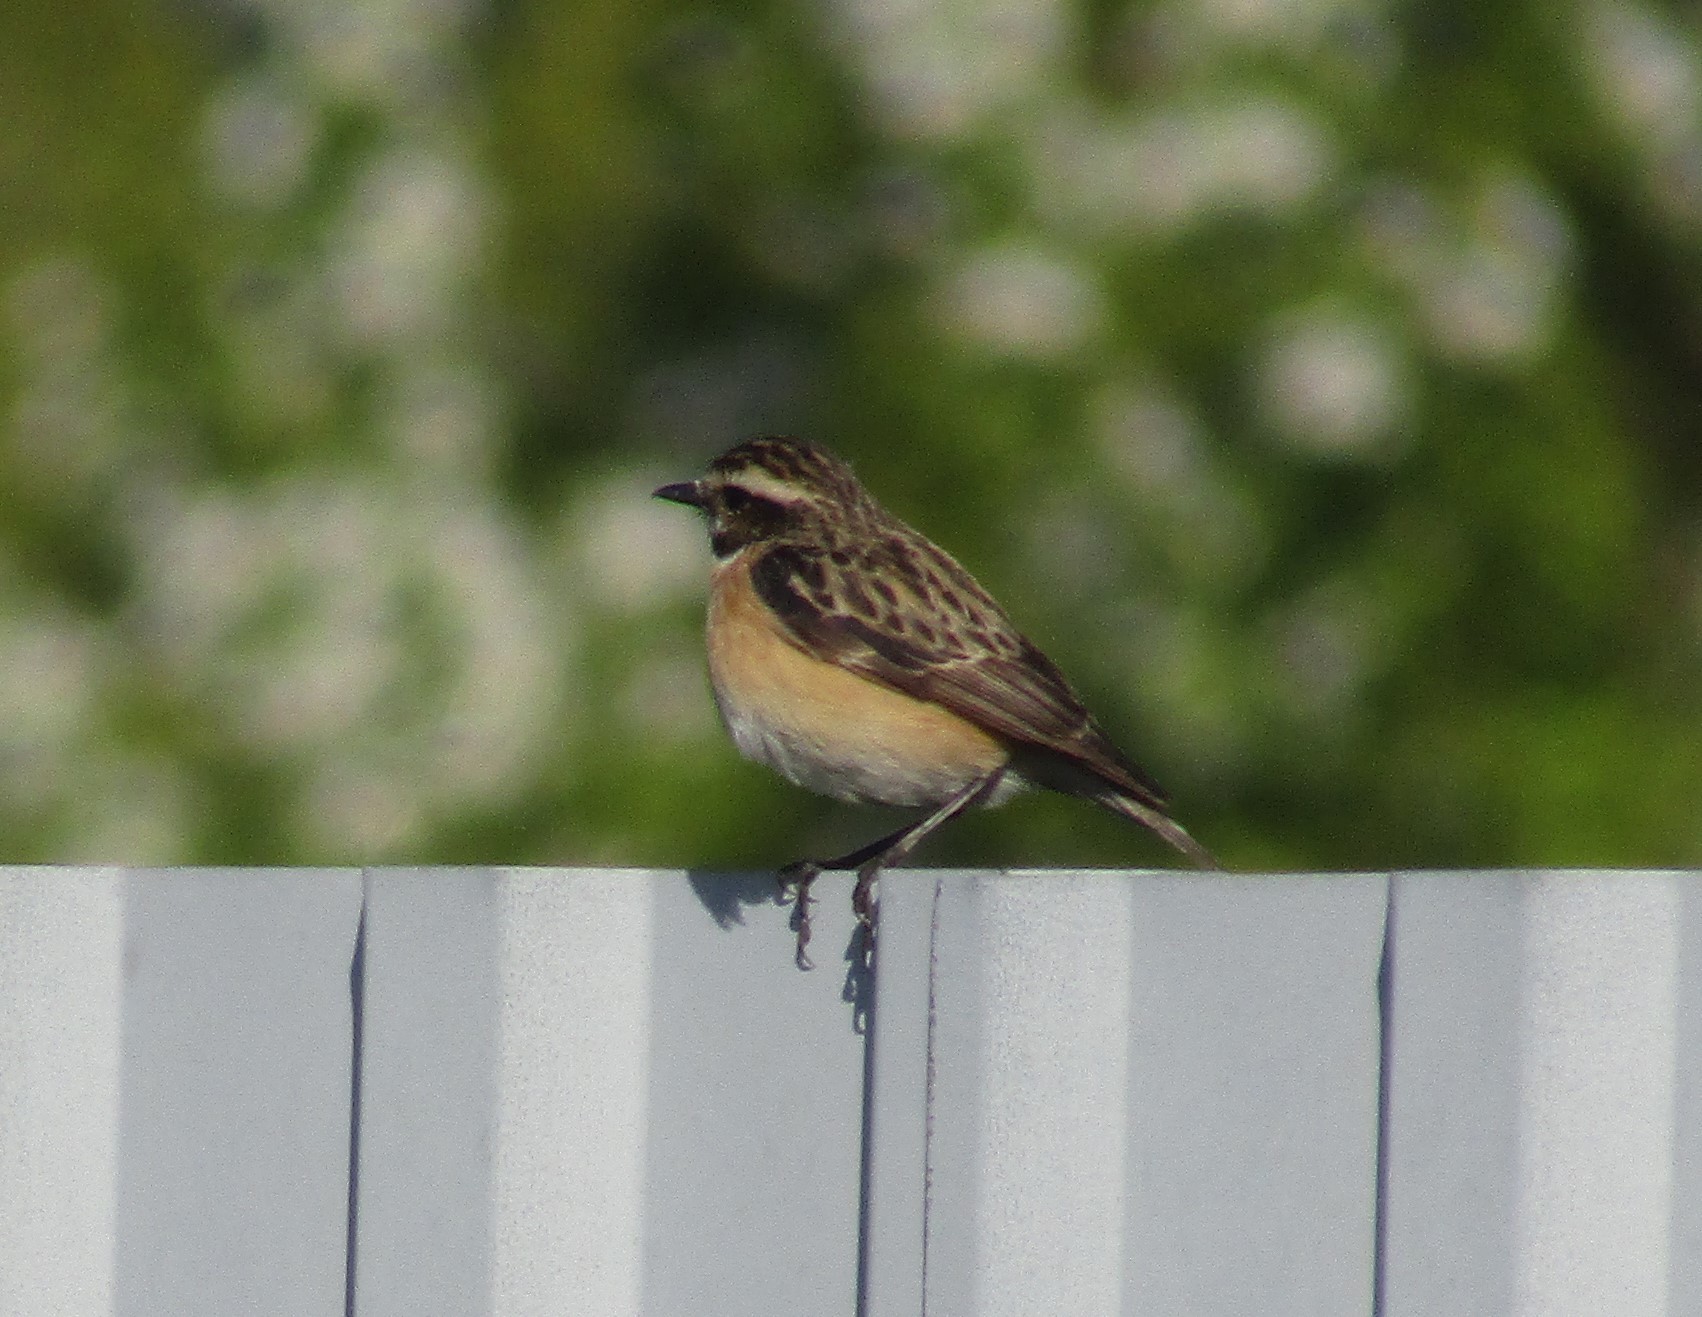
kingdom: Animalia
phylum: Chordata
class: Aves
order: Passeriformes
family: Muscicapidae
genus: Saxicola
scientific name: Saxicola rubetra
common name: Whinchat
